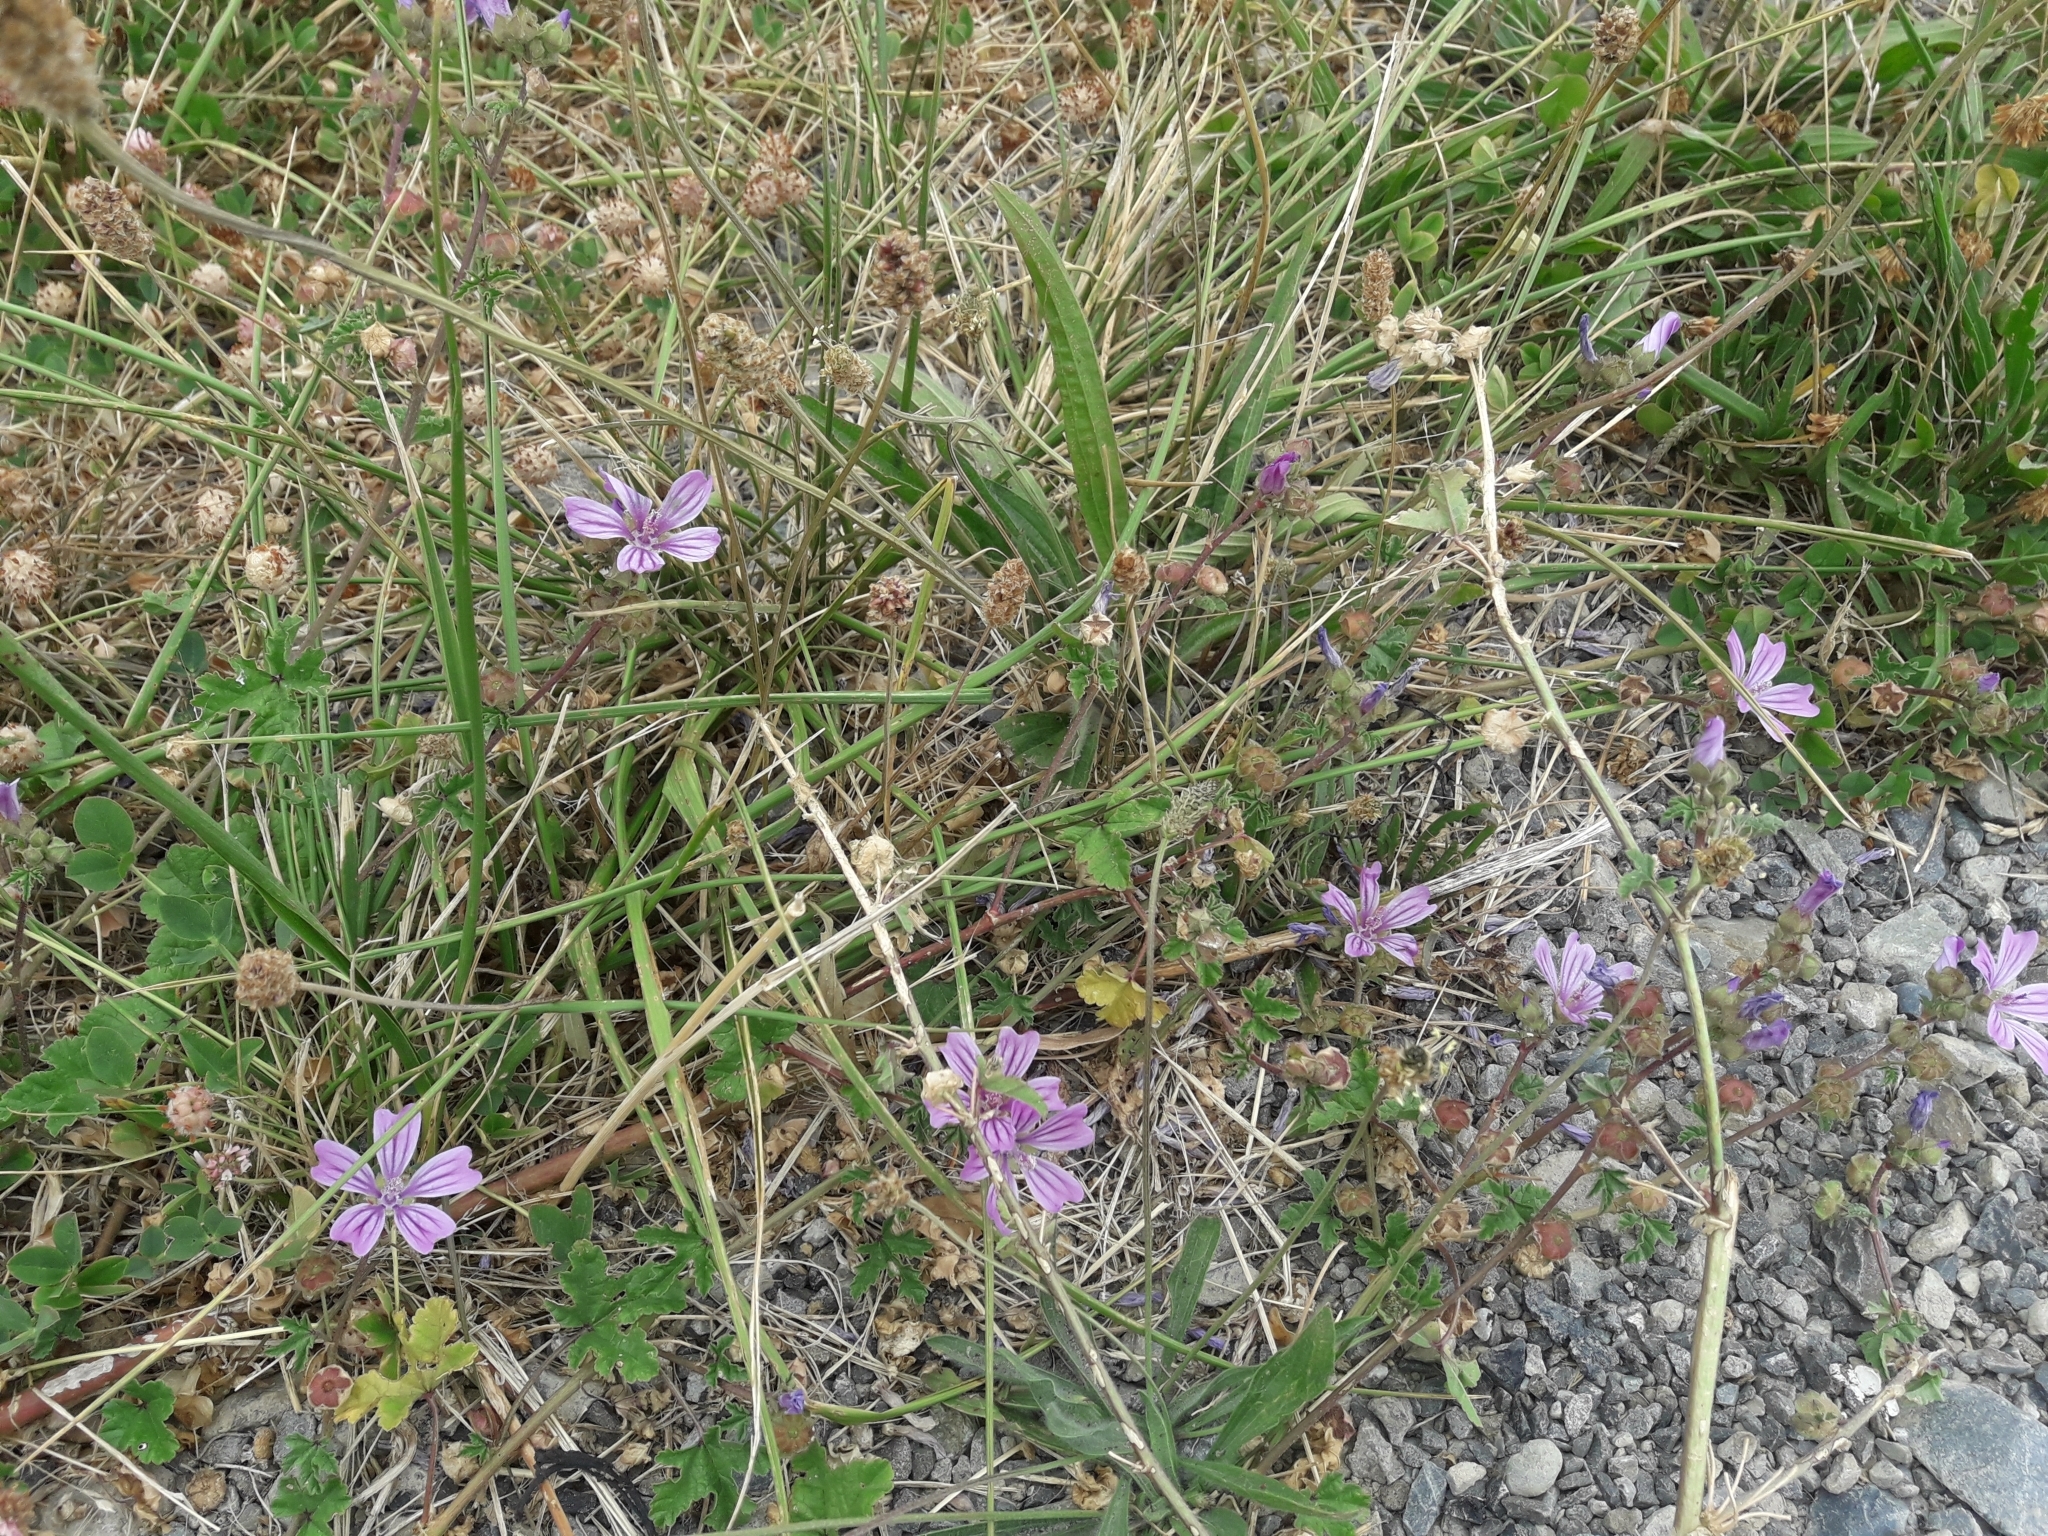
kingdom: Plantae
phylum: Tracheophyta
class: Magnoliopsida
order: Malvales
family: Malvaceae
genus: Malva
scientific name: Malva sylvestris
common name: Common mallow
